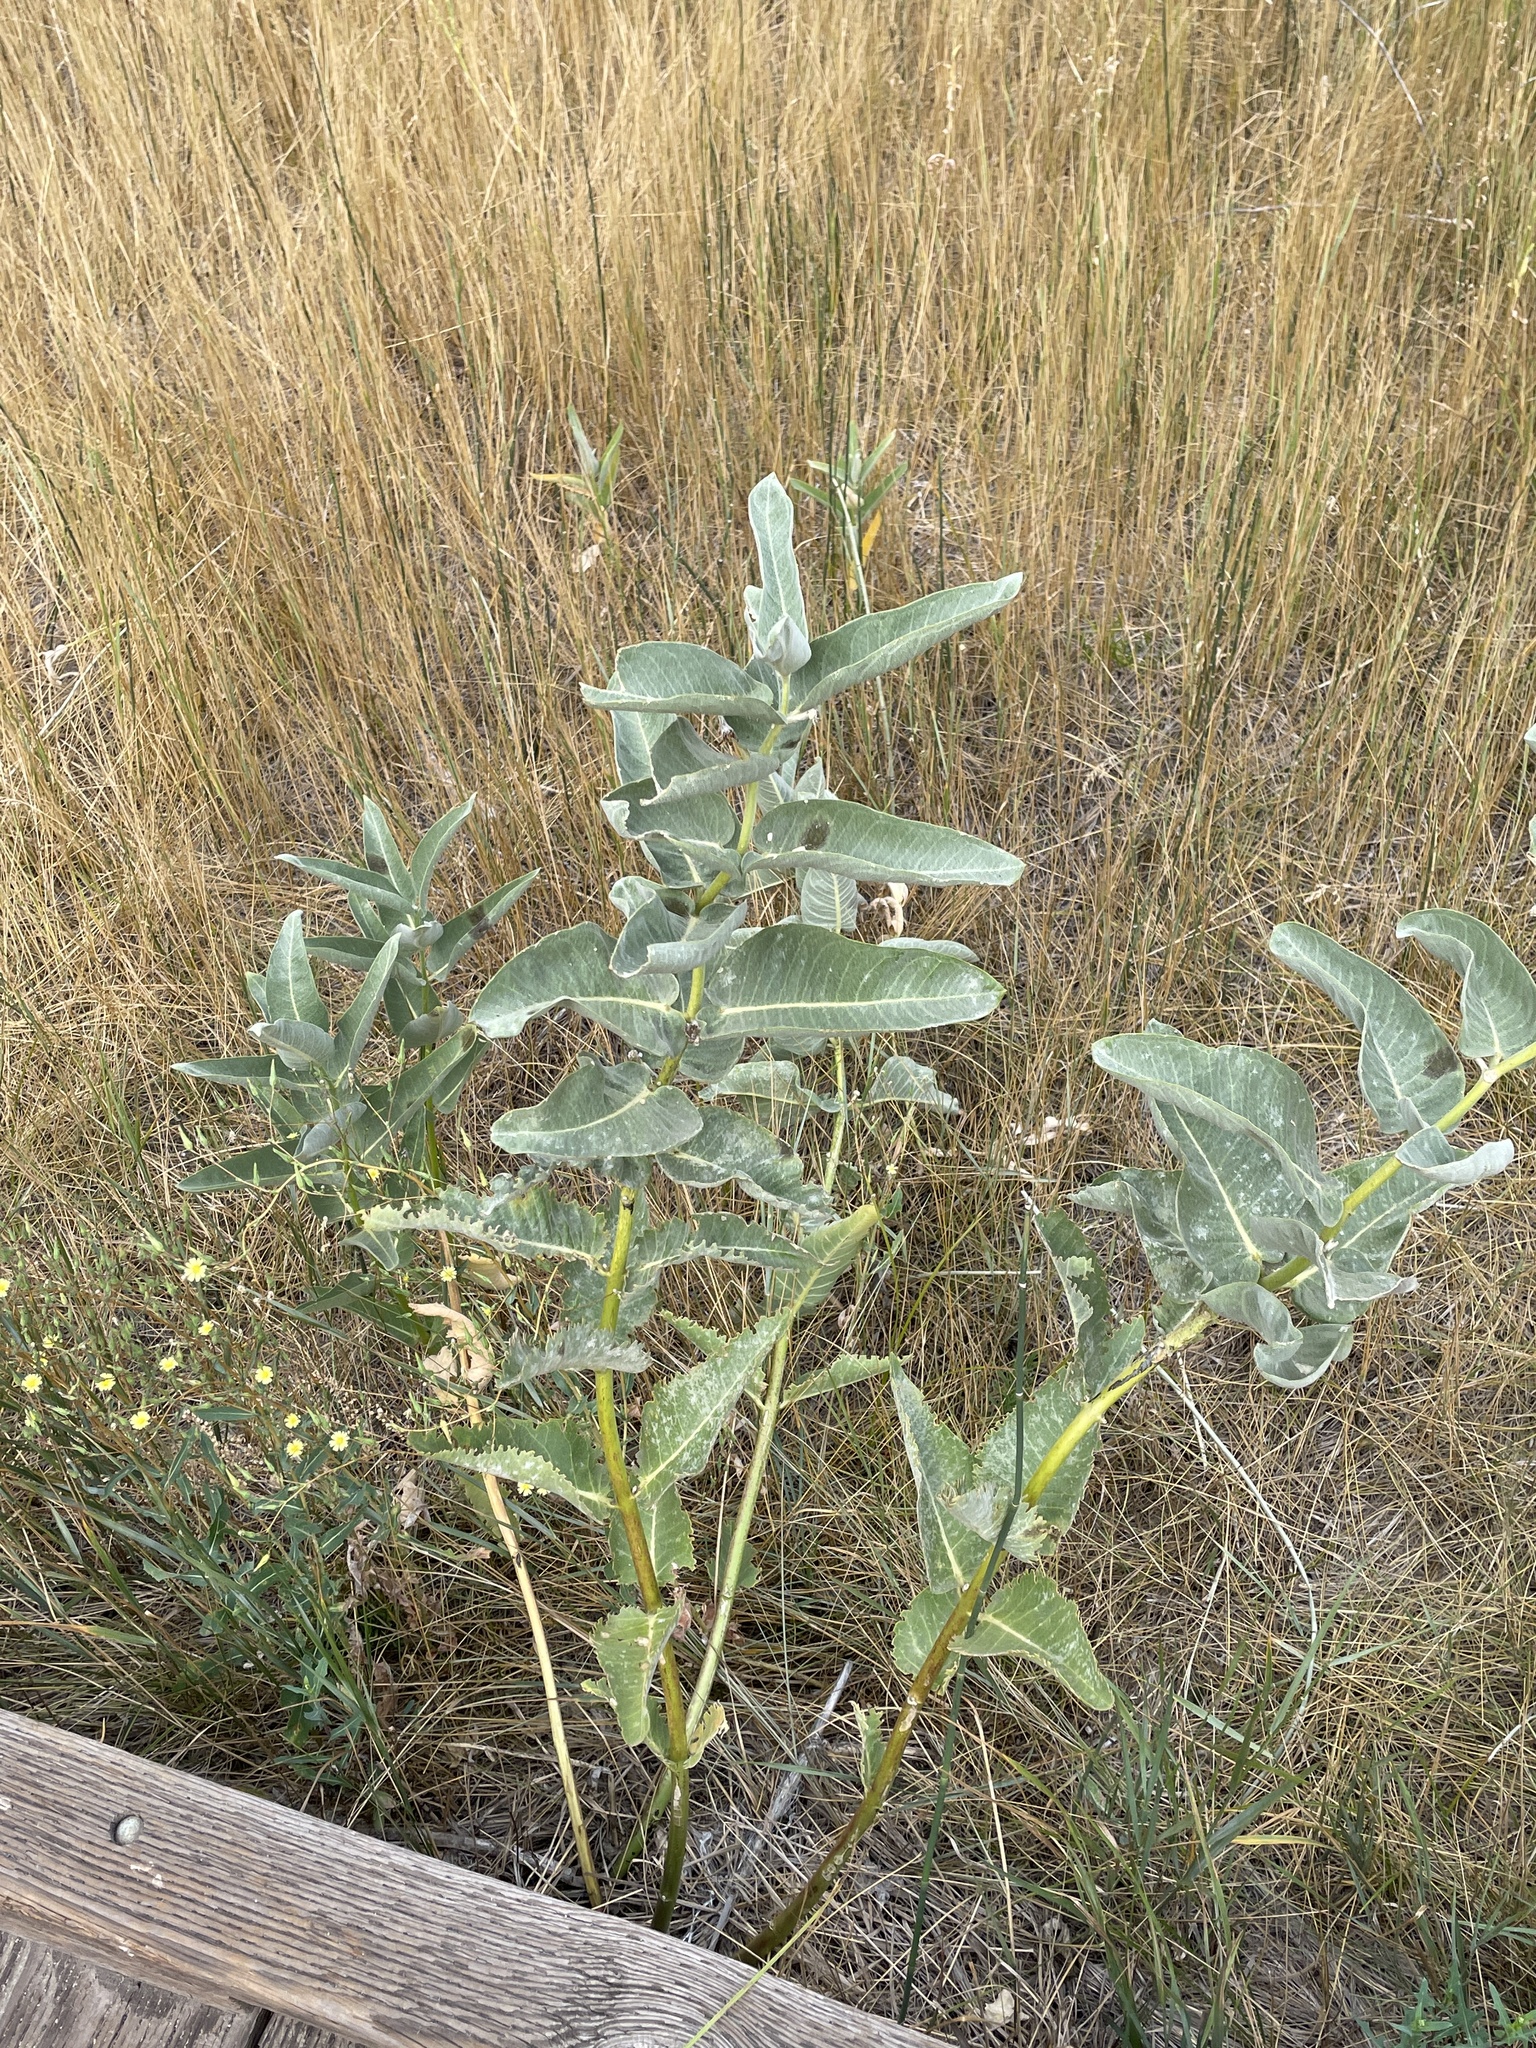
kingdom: Plantae
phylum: Tracheophyta
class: Magnoliopsida
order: Gentianales
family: Apocynaceae
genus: Asclepias
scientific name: Asclepias speciosa
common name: Showy milkweed
